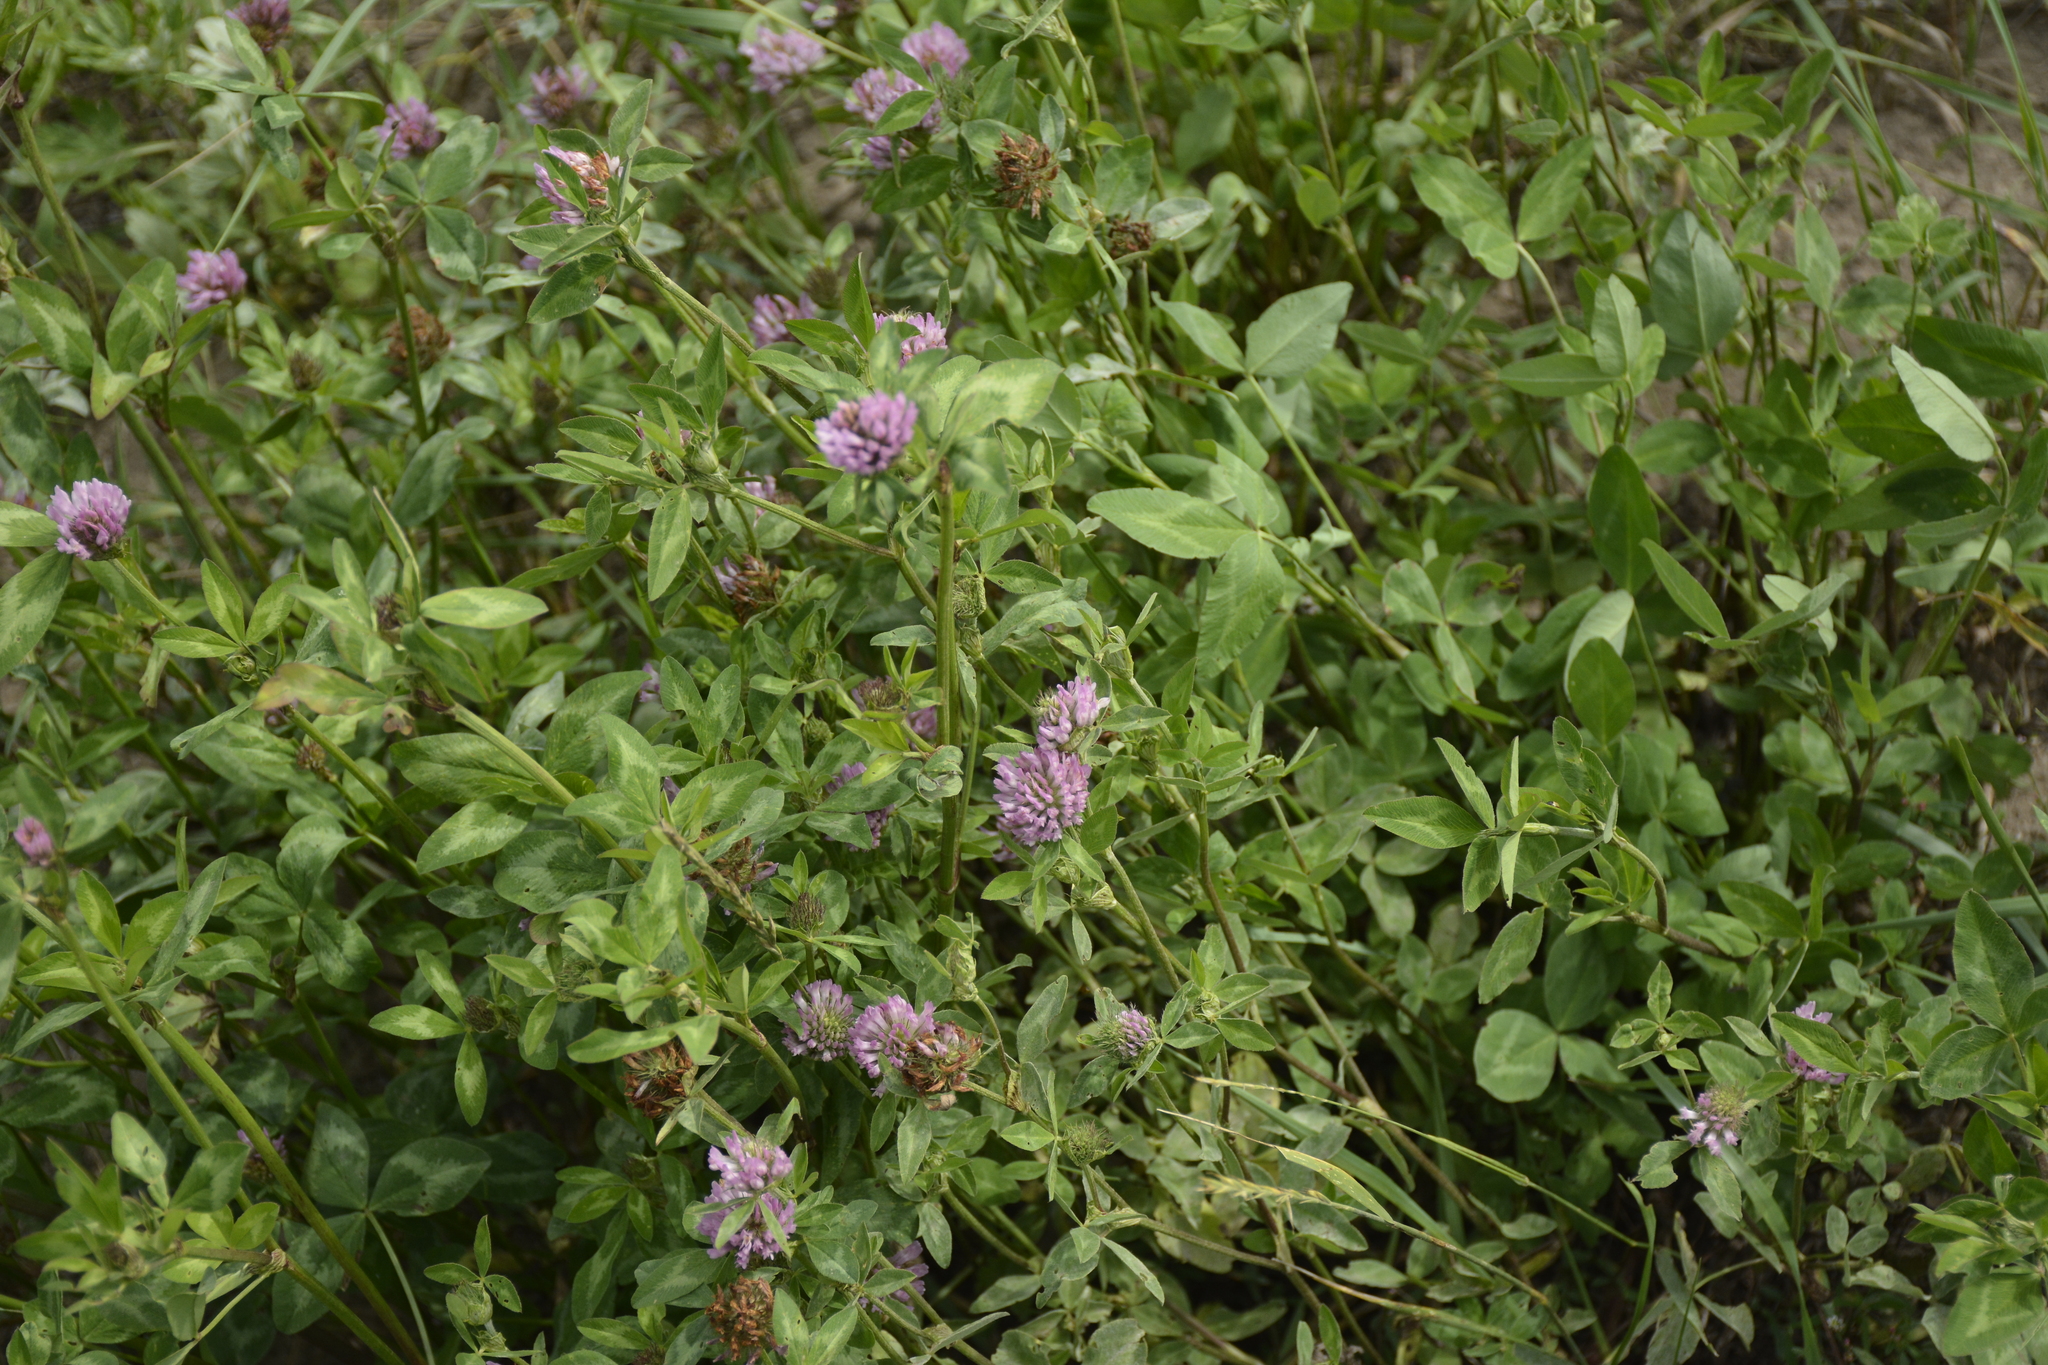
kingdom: Plantae
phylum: Tracheophyta
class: Magnoliopsida
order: Fabales
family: Fabaceae
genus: Trifolium
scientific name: Trifolium pratense
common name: Red clover
